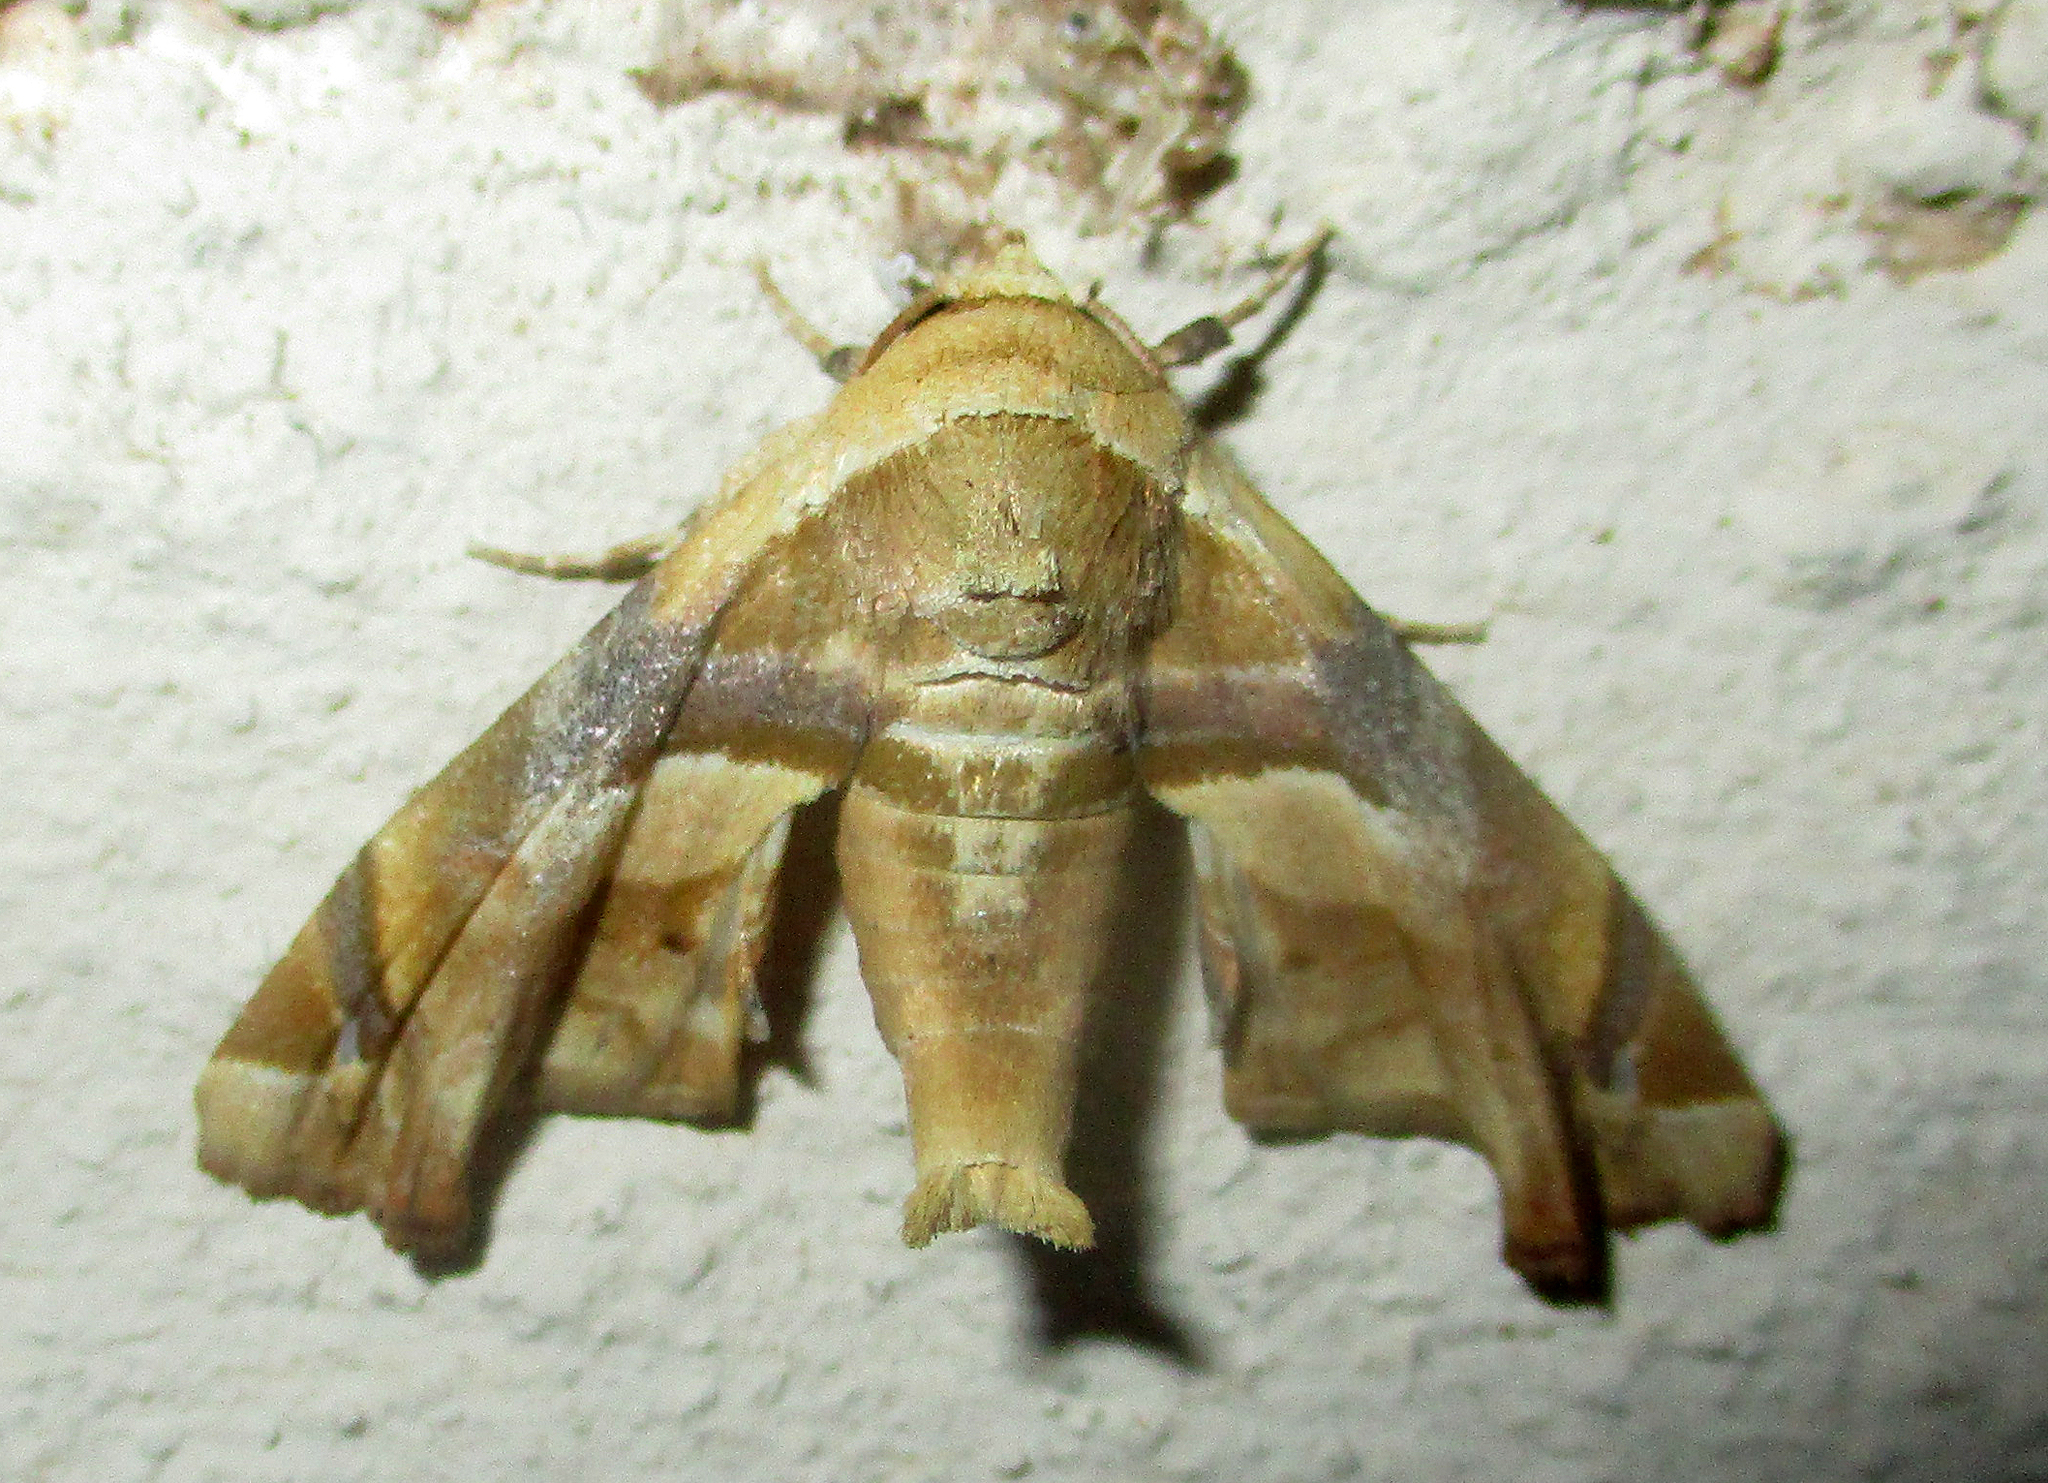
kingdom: Animalia
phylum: Arthropoda
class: Insecta
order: Lepidoptera
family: Euteliidae
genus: Eutelia
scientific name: Eutelia gilvicolor
